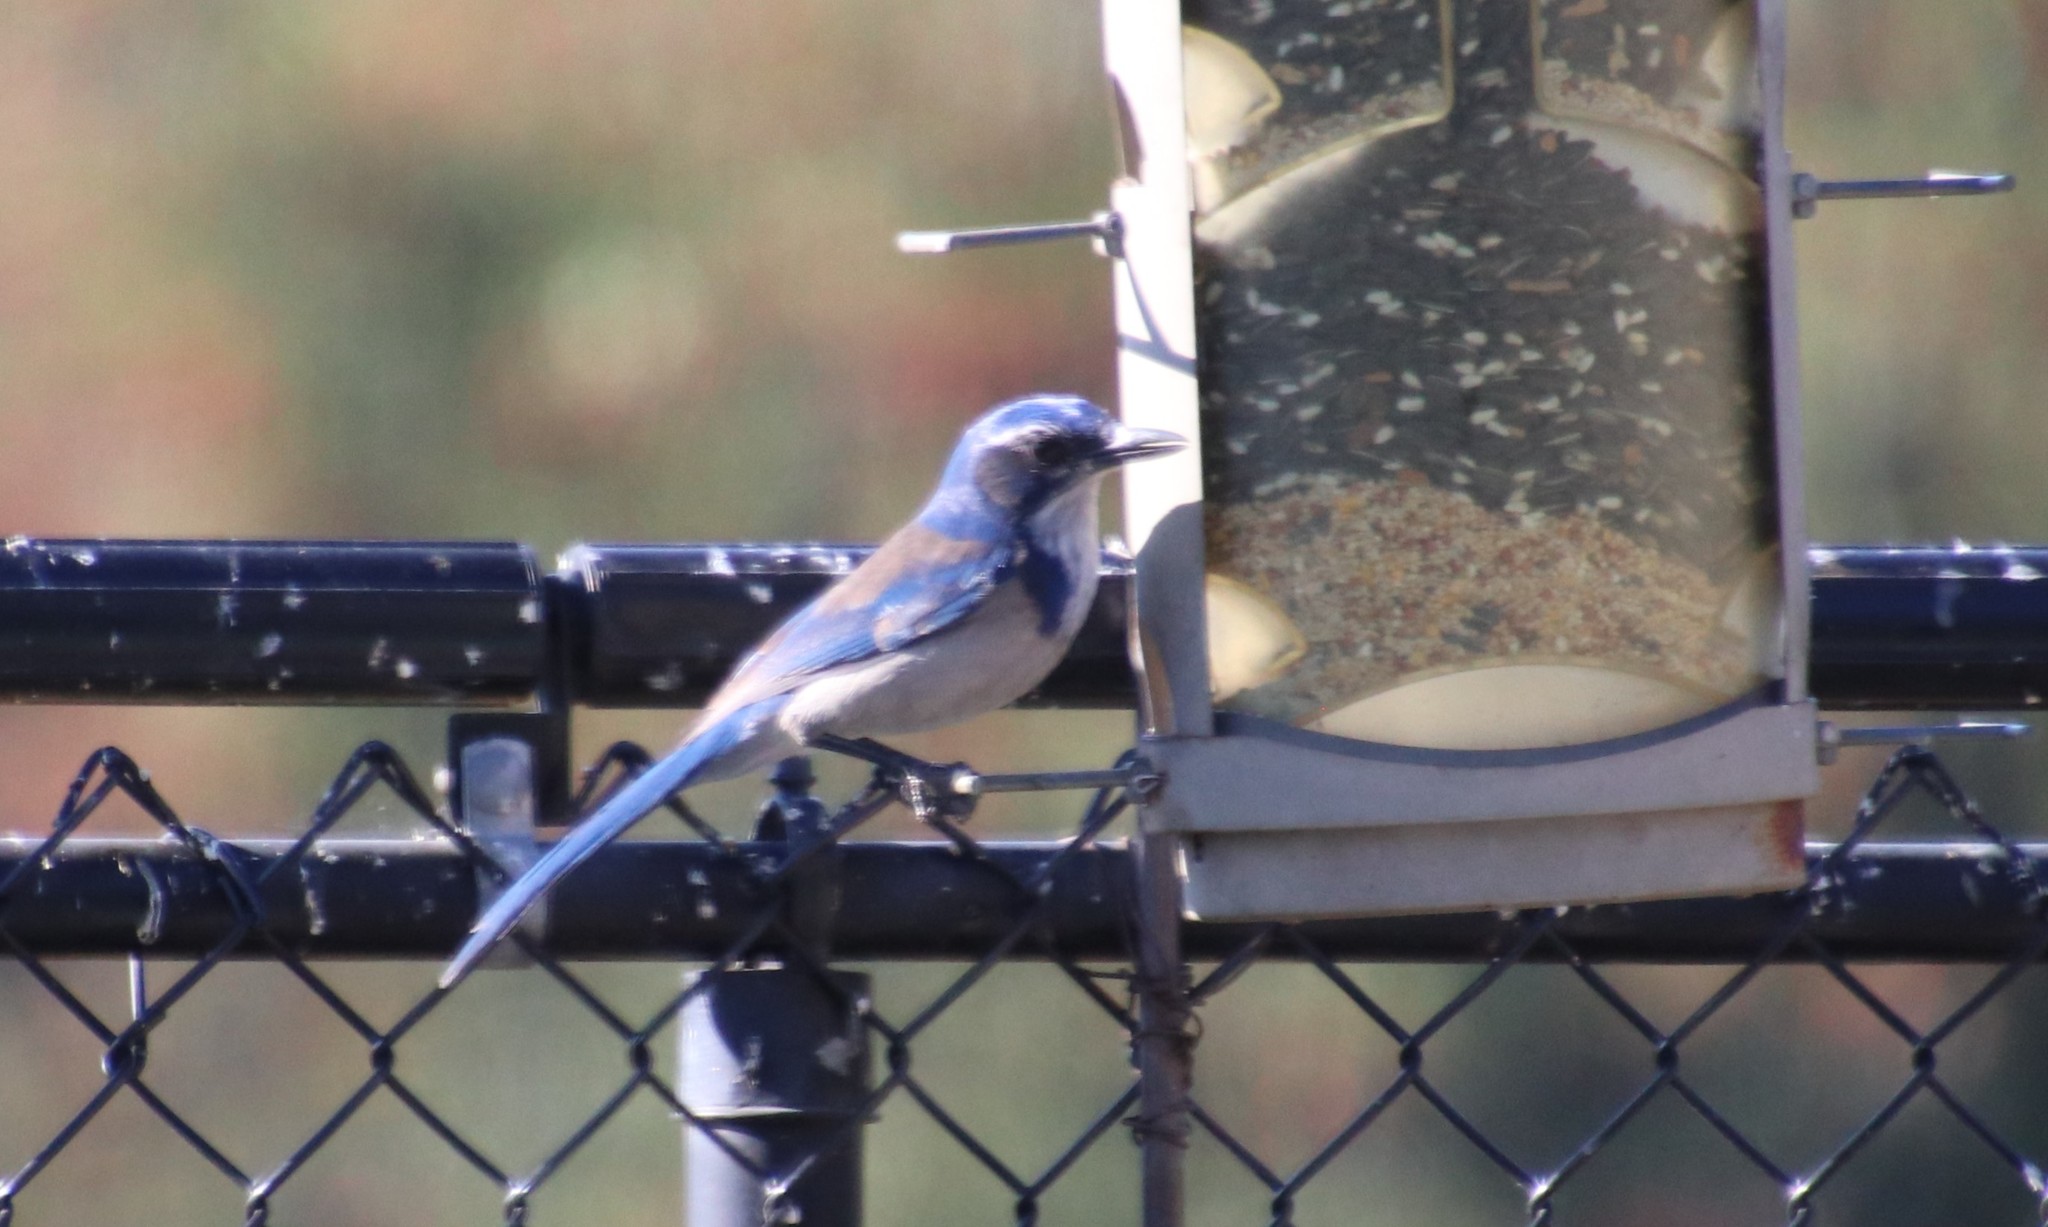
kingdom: Animalia
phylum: Chordata
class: Aves
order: Passeriformes
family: Corvidae
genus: Aphelocoma
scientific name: Aphelocoma californica
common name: California scrub-jay
